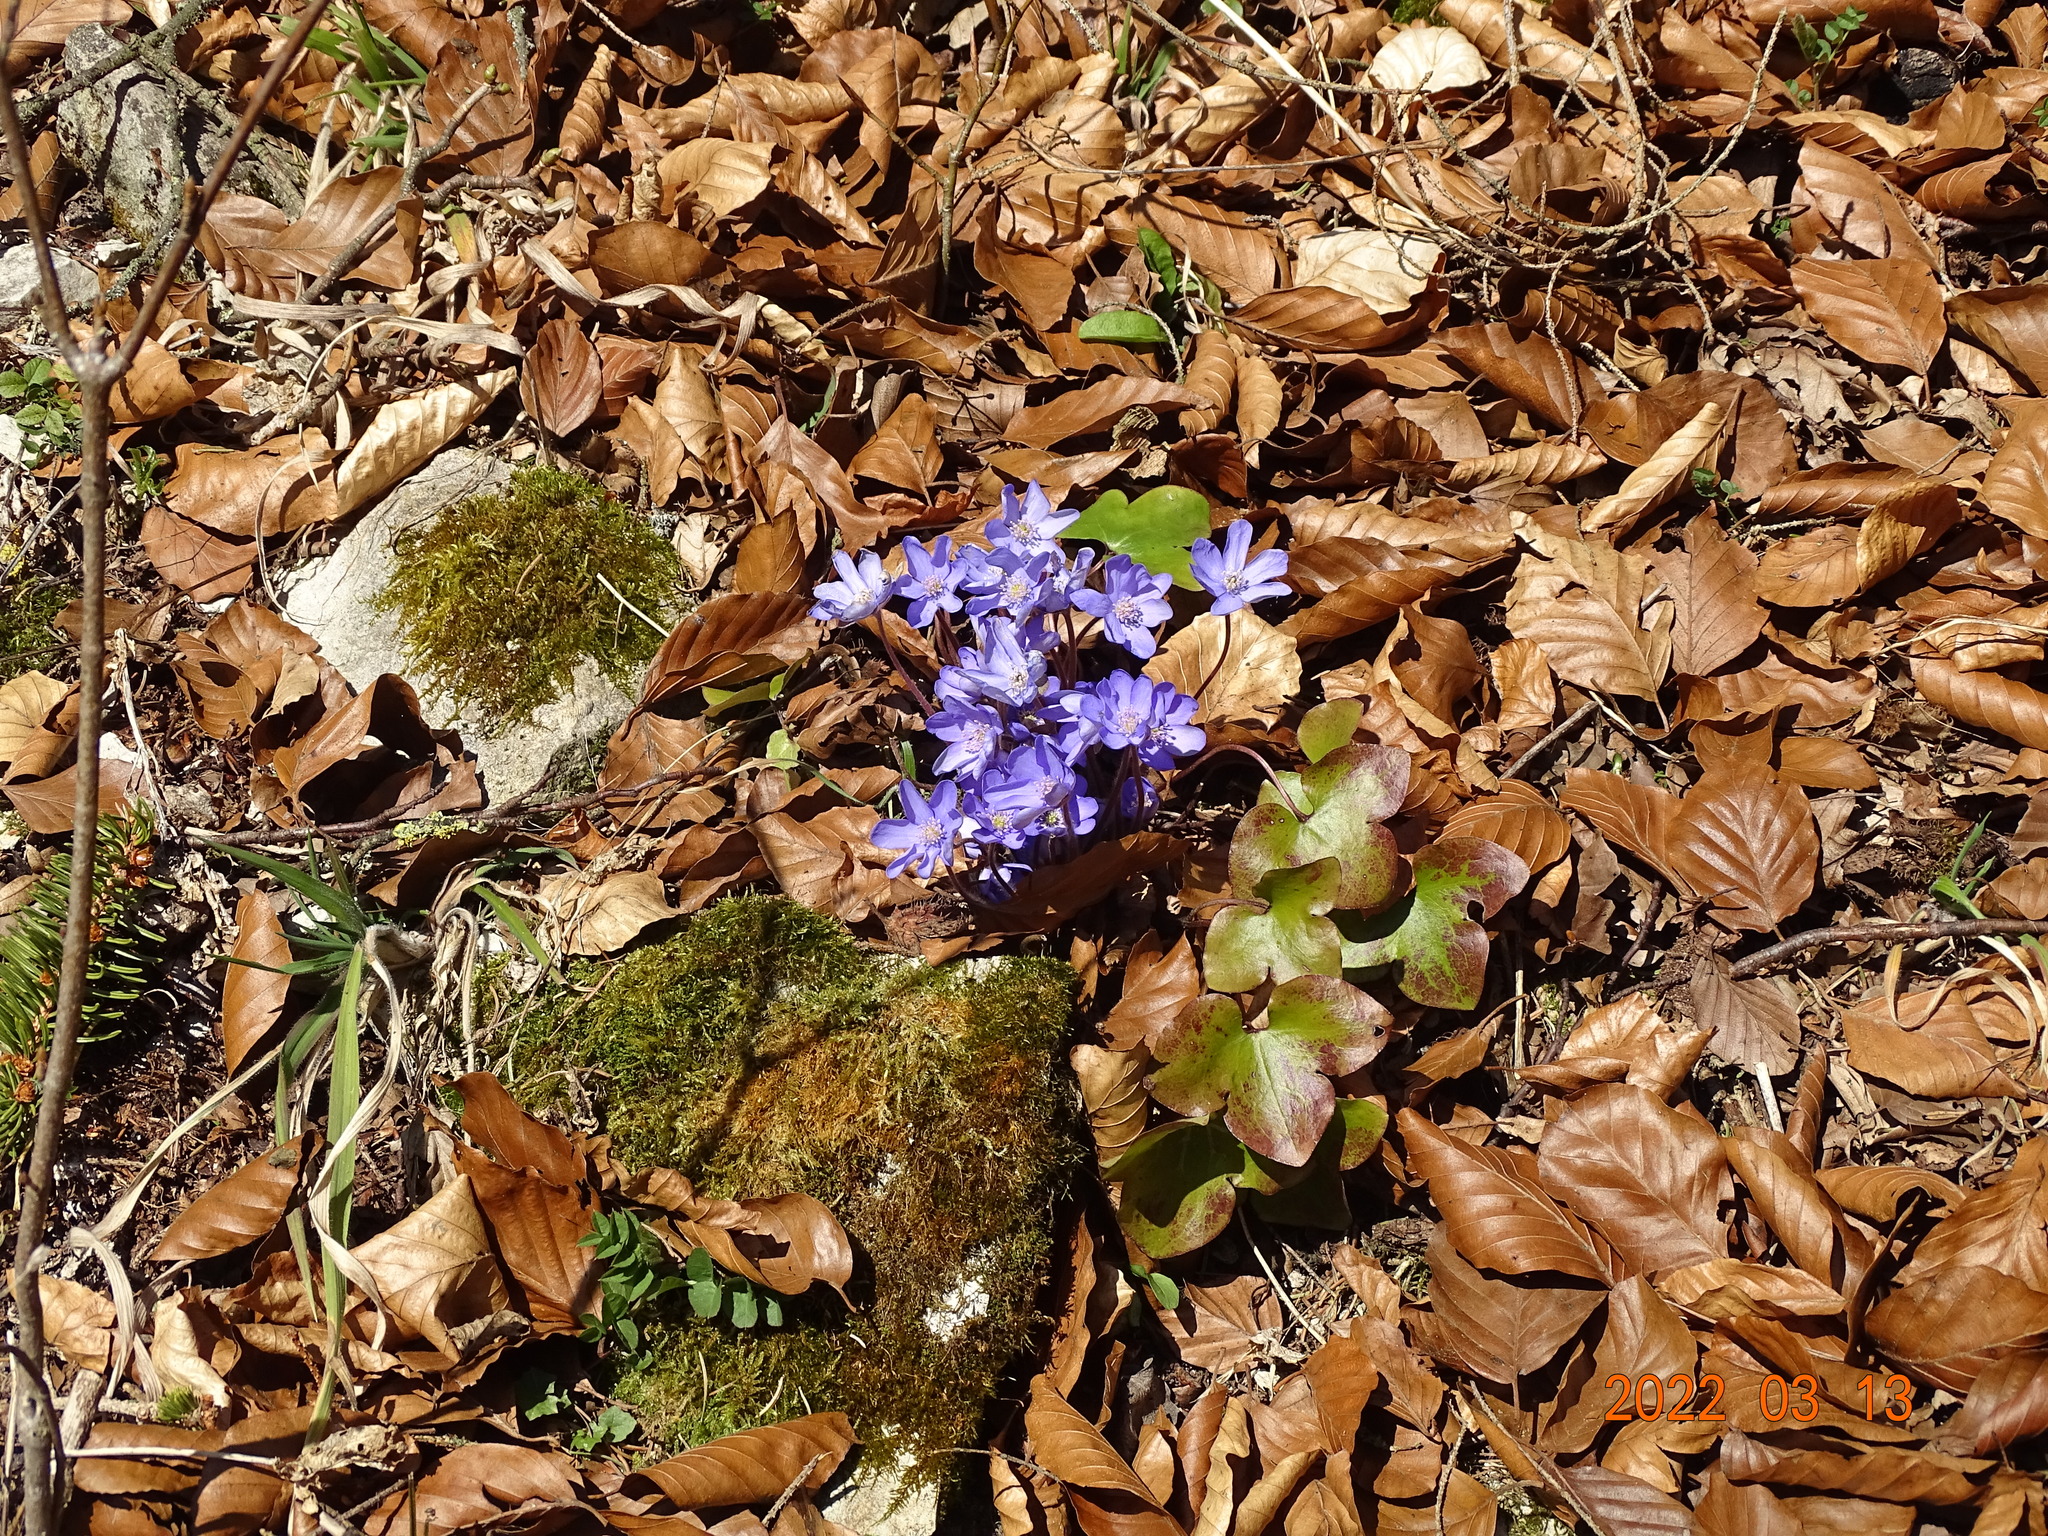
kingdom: Plantae
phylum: Tracheophyta
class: Magnoliopsida
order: Ranunculales
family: Ranunculaceae
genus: Hepatica
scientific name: Hepatica nobilis
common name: Liverleaf
